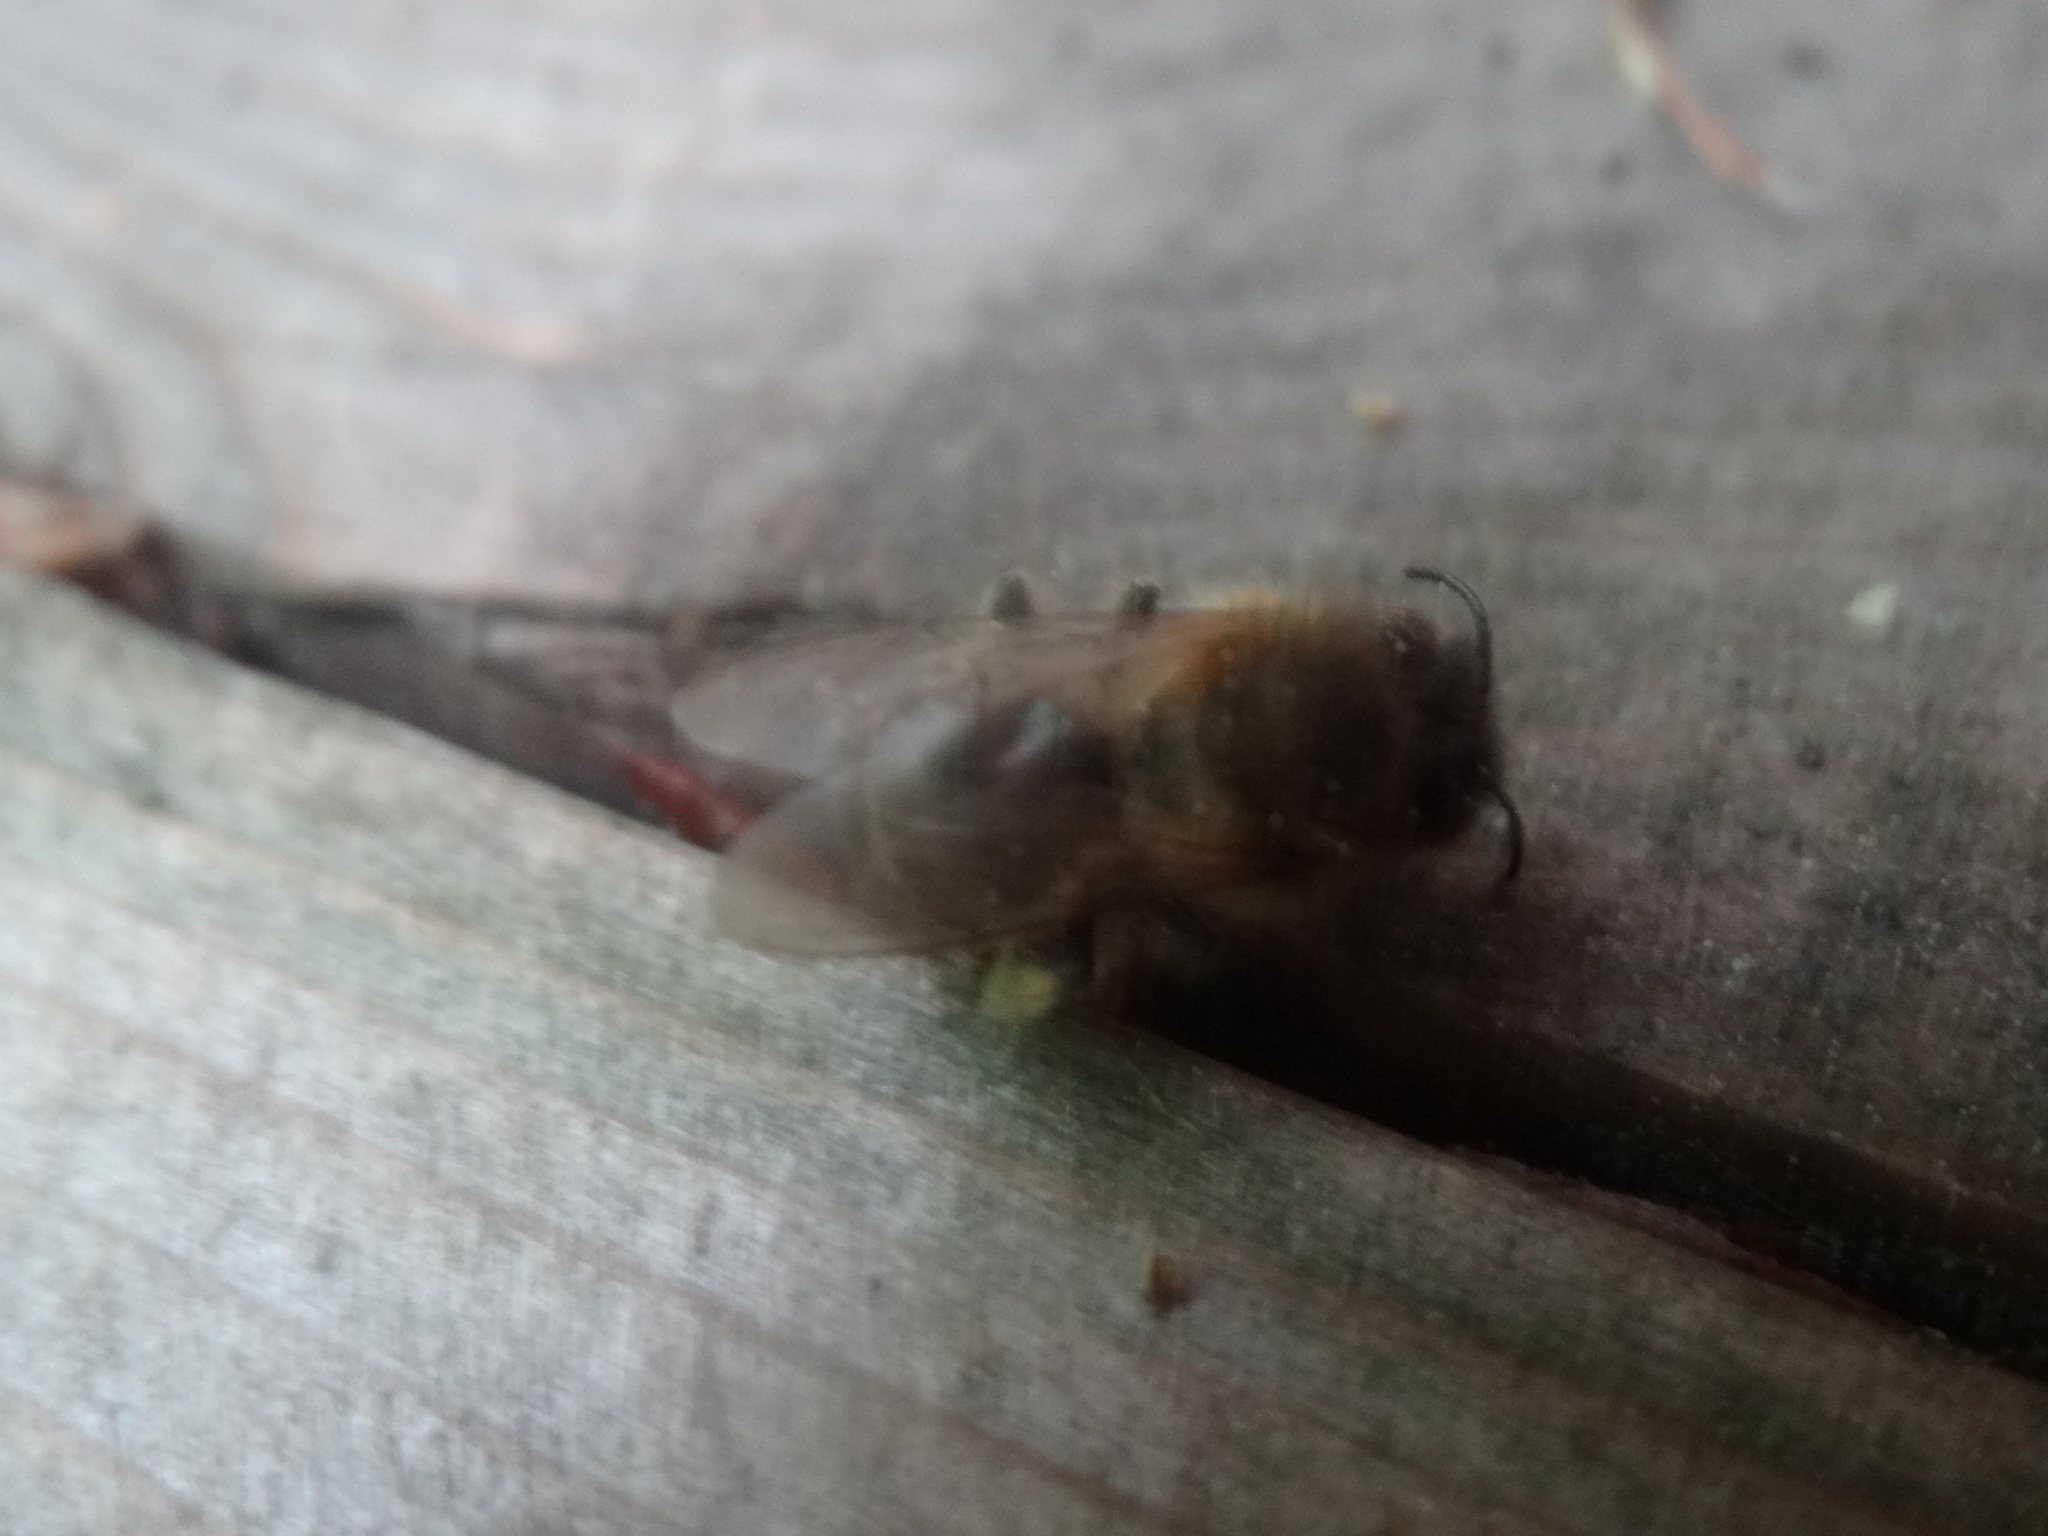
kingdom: Animalia
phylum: Arthropoda
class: Insecta
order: Hymenoptera
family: Apidae
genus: Apis
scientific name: Apis mellifera
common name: Honey bee
